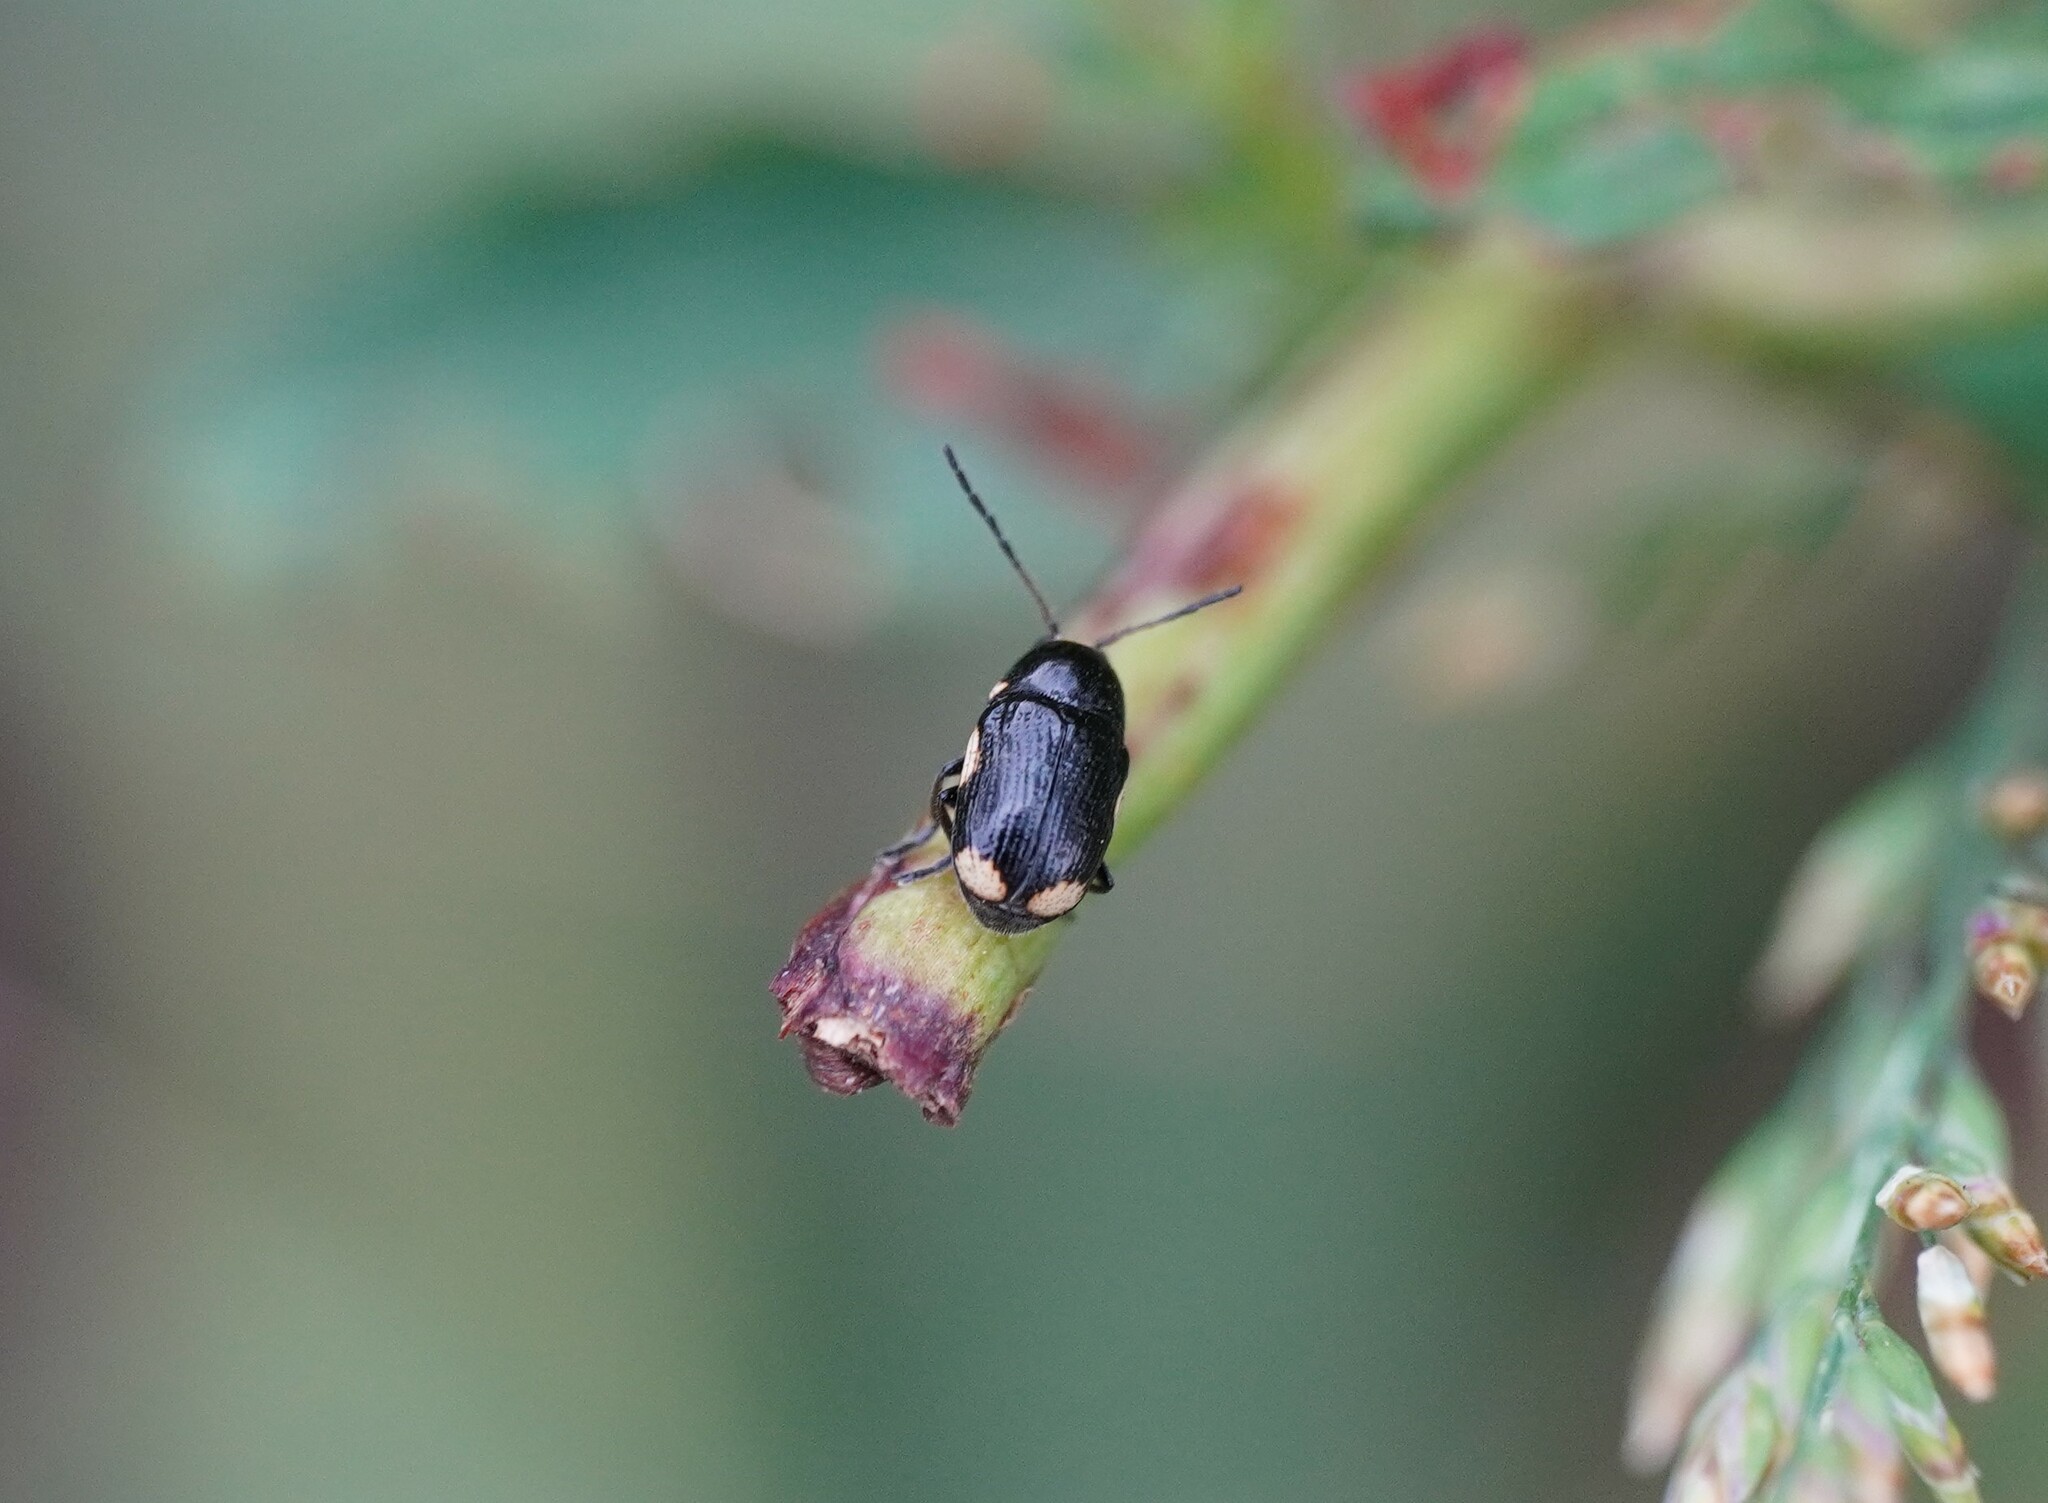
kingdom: Animalia
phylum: Arthropoda
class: Insecta
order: Coleoptera
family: Chrysomelidae
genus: Cryptocephalus
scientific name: Cryptocephalus moraei
